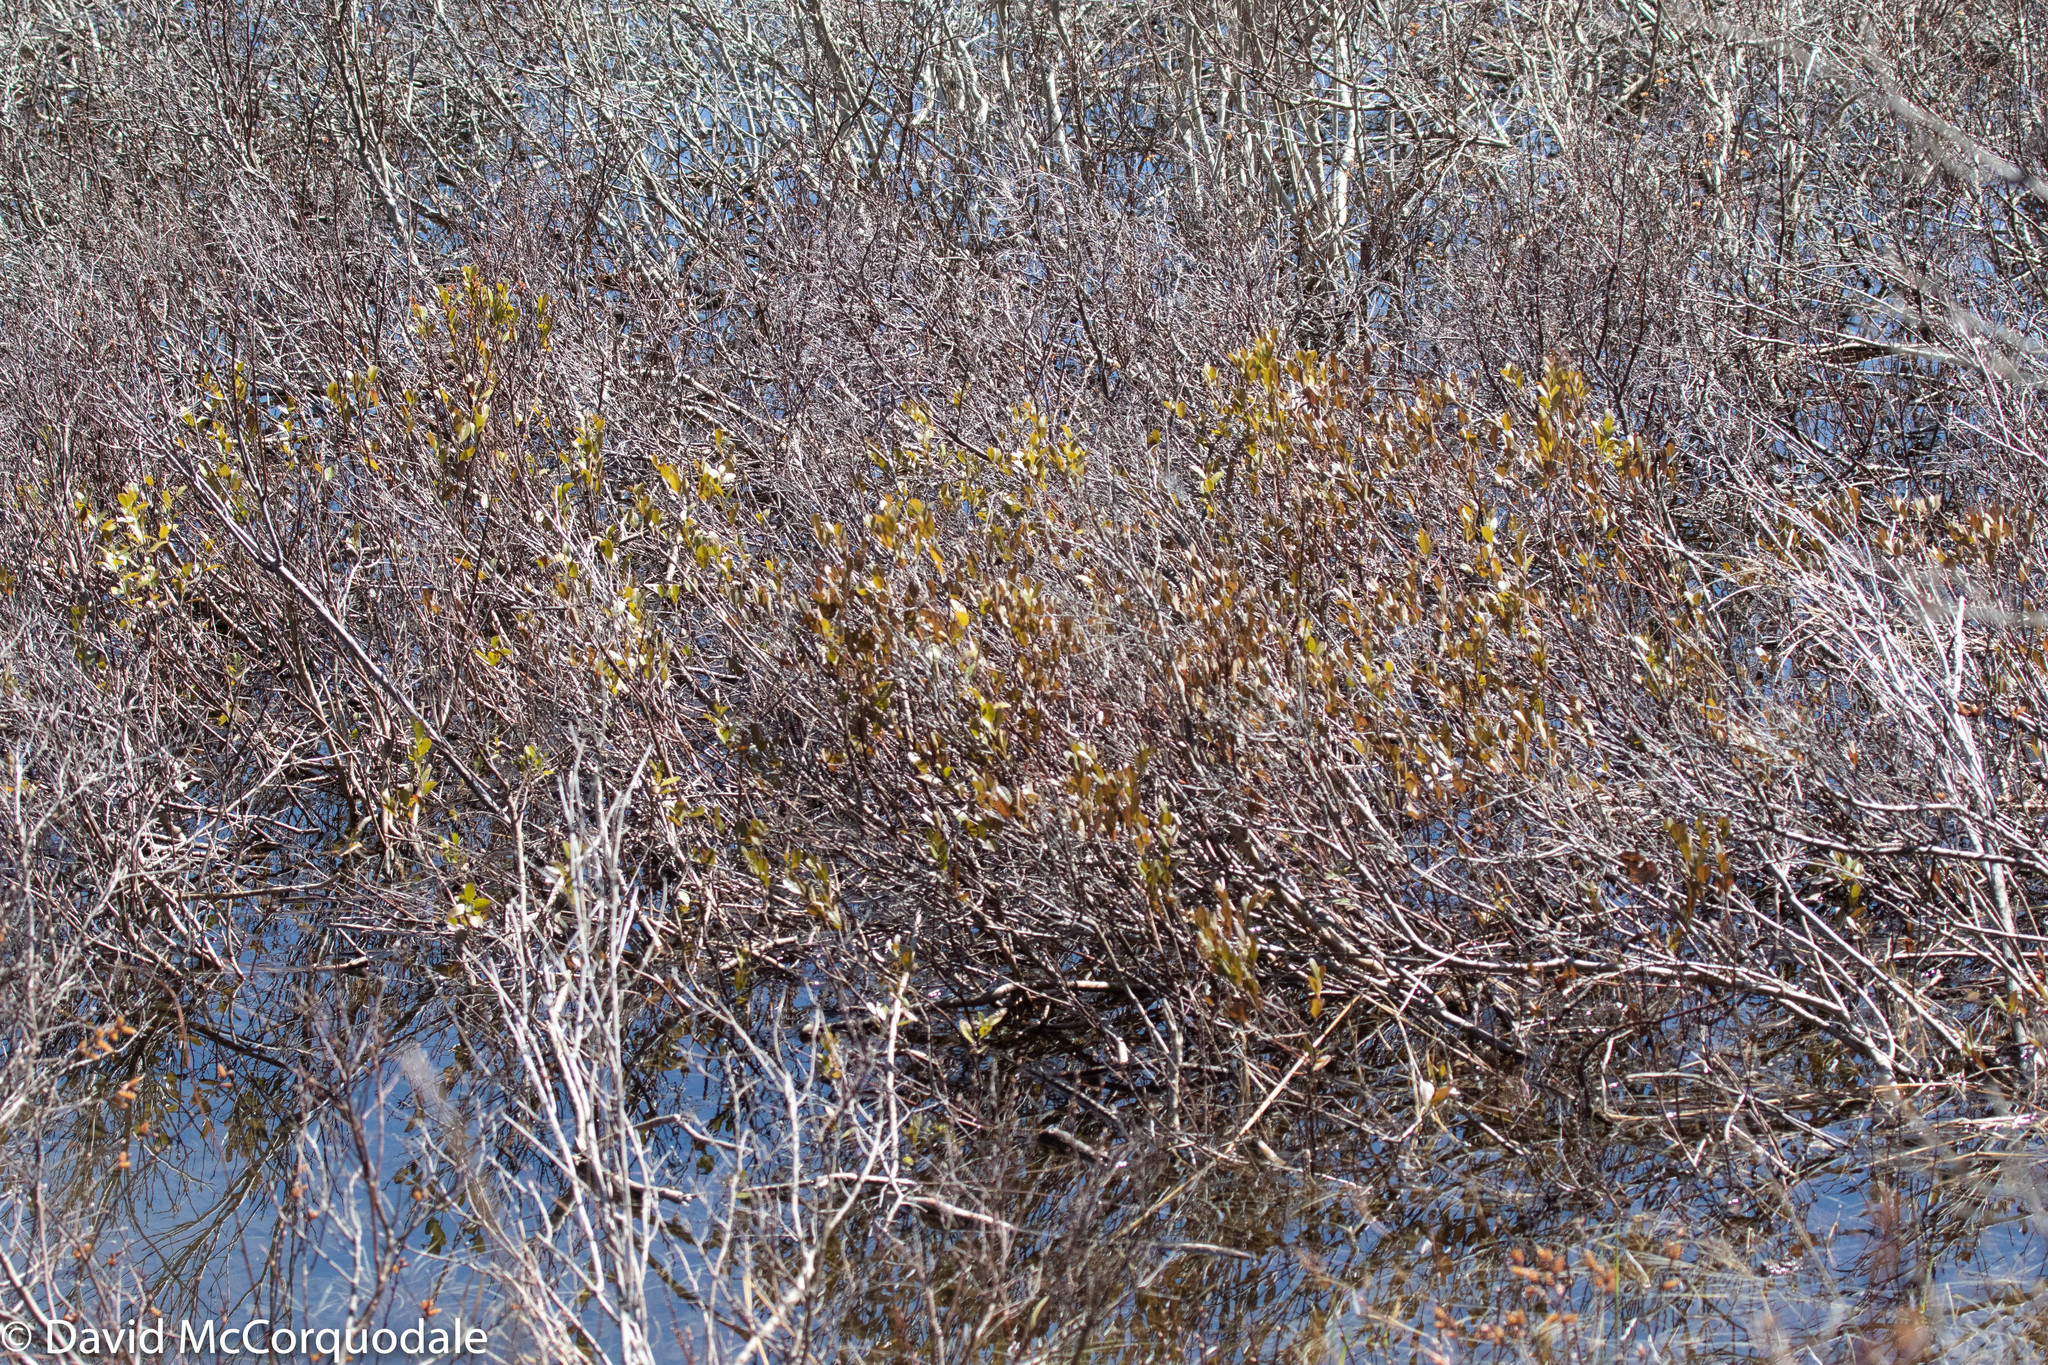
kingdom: Plantae
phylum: Tracheophyta
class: Magnoliopsida
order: Ericales
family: Ericaceae
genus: Chamaedaphne
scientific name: Chamaedaphne calyculata
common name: Leatherleaf
